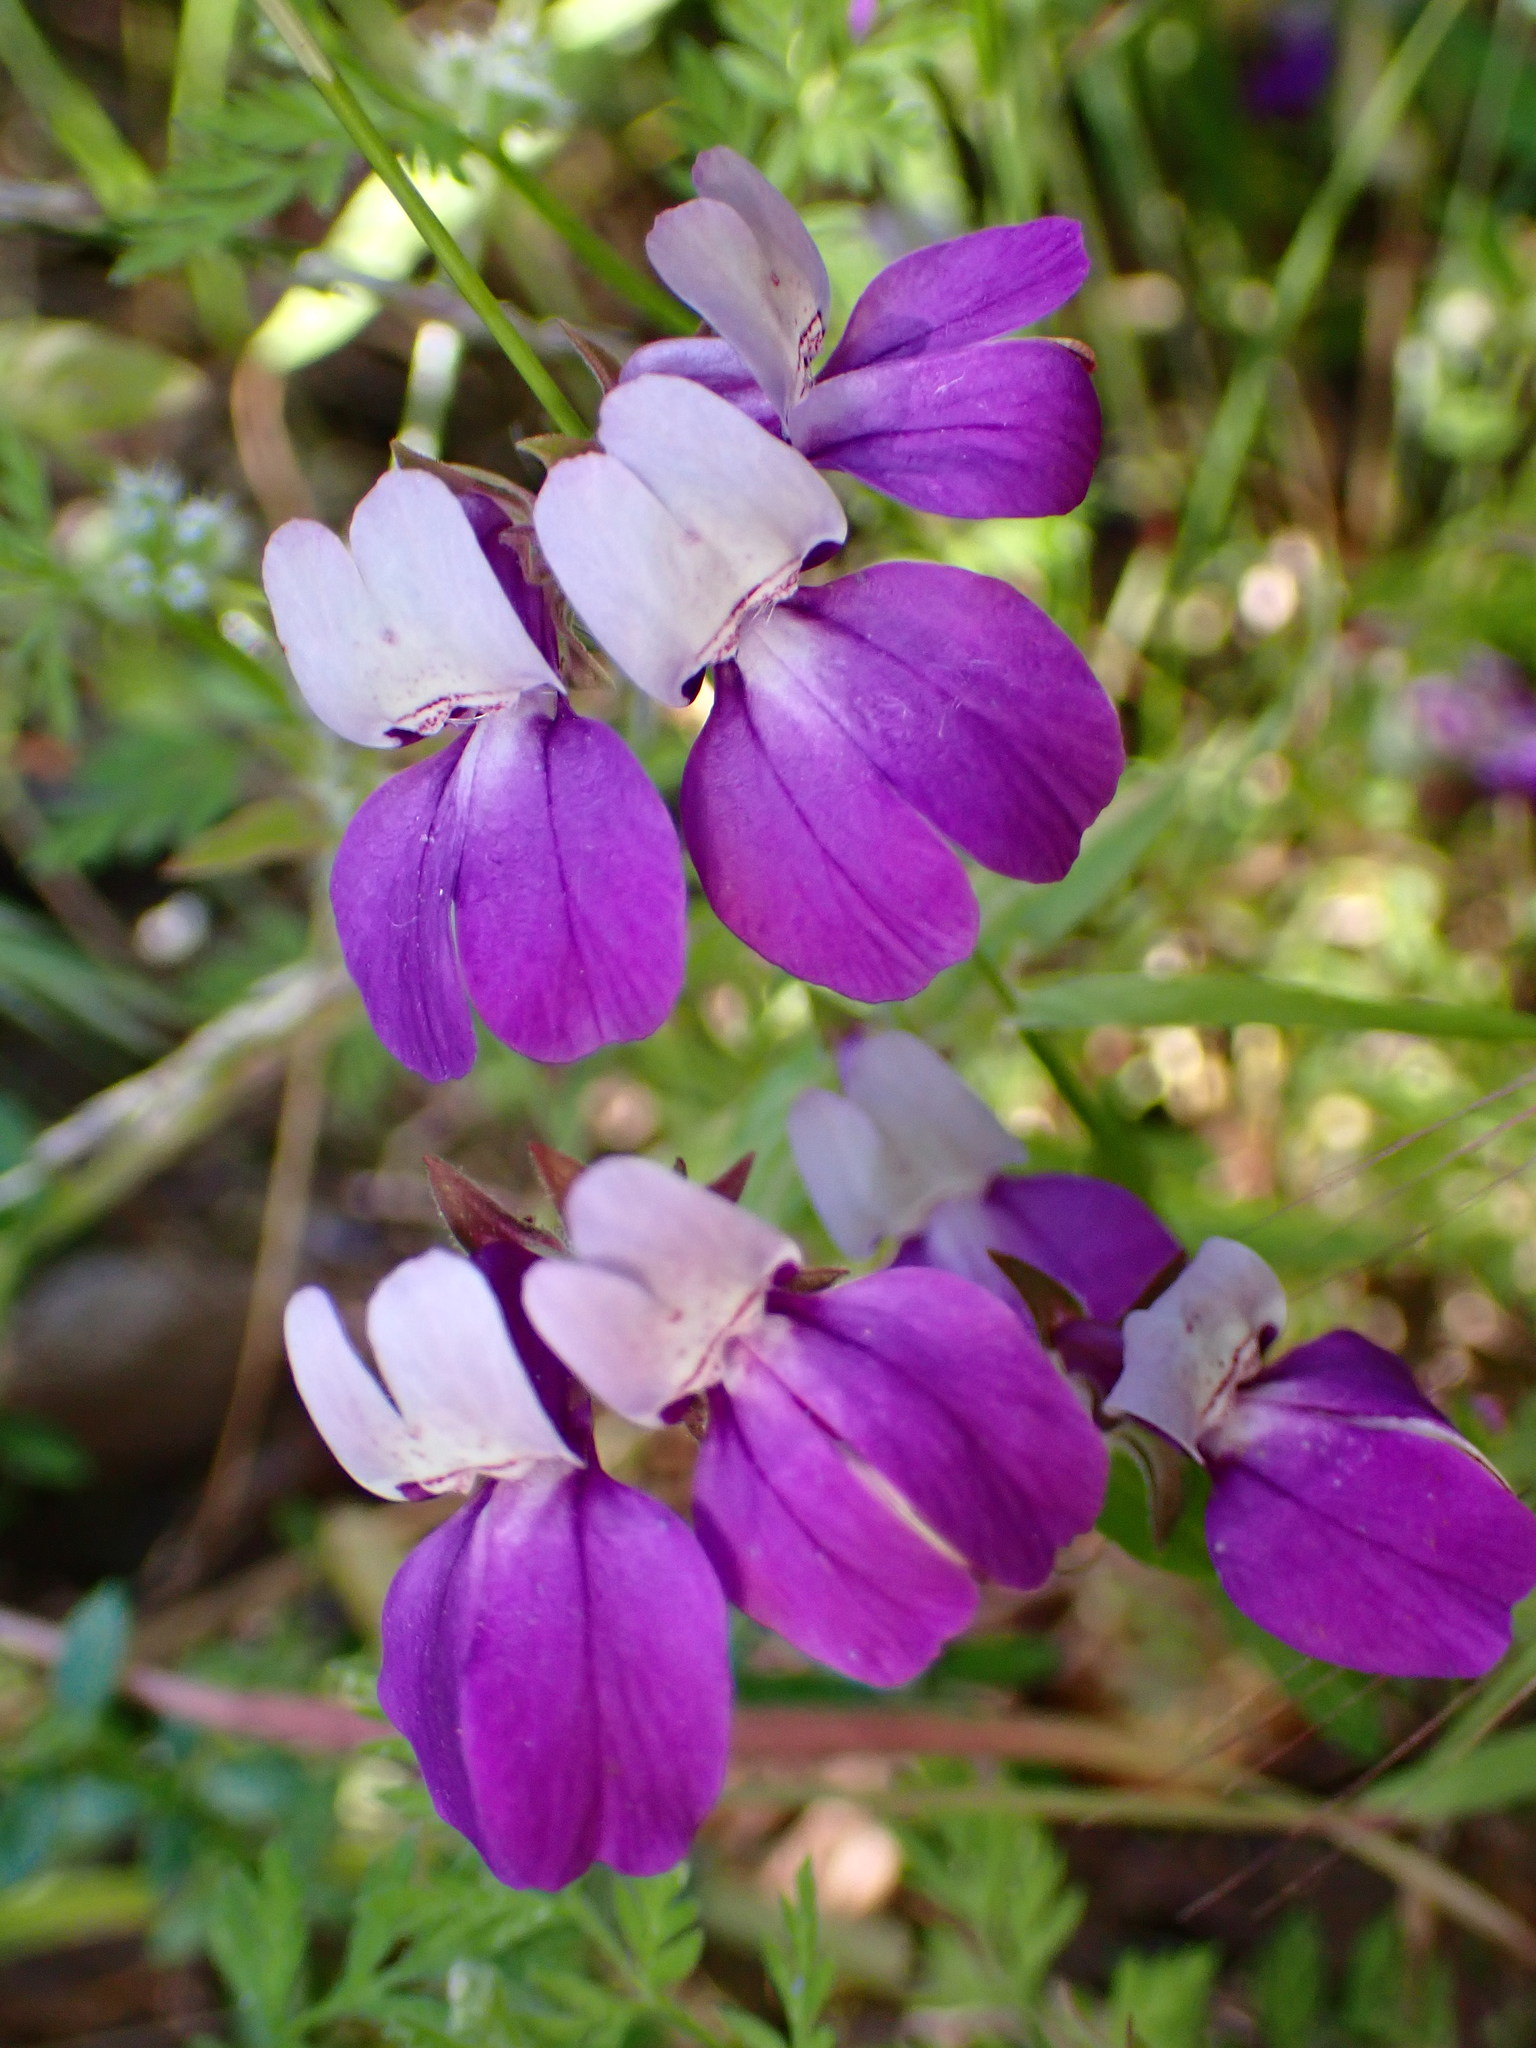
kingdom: Plantae
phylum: Tracheophyta
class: Magnoliopsida
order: Lamiales
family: Plantaginaceae
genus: Collinsia
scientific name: Collinsia heterophylla
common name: Chinese-houses
